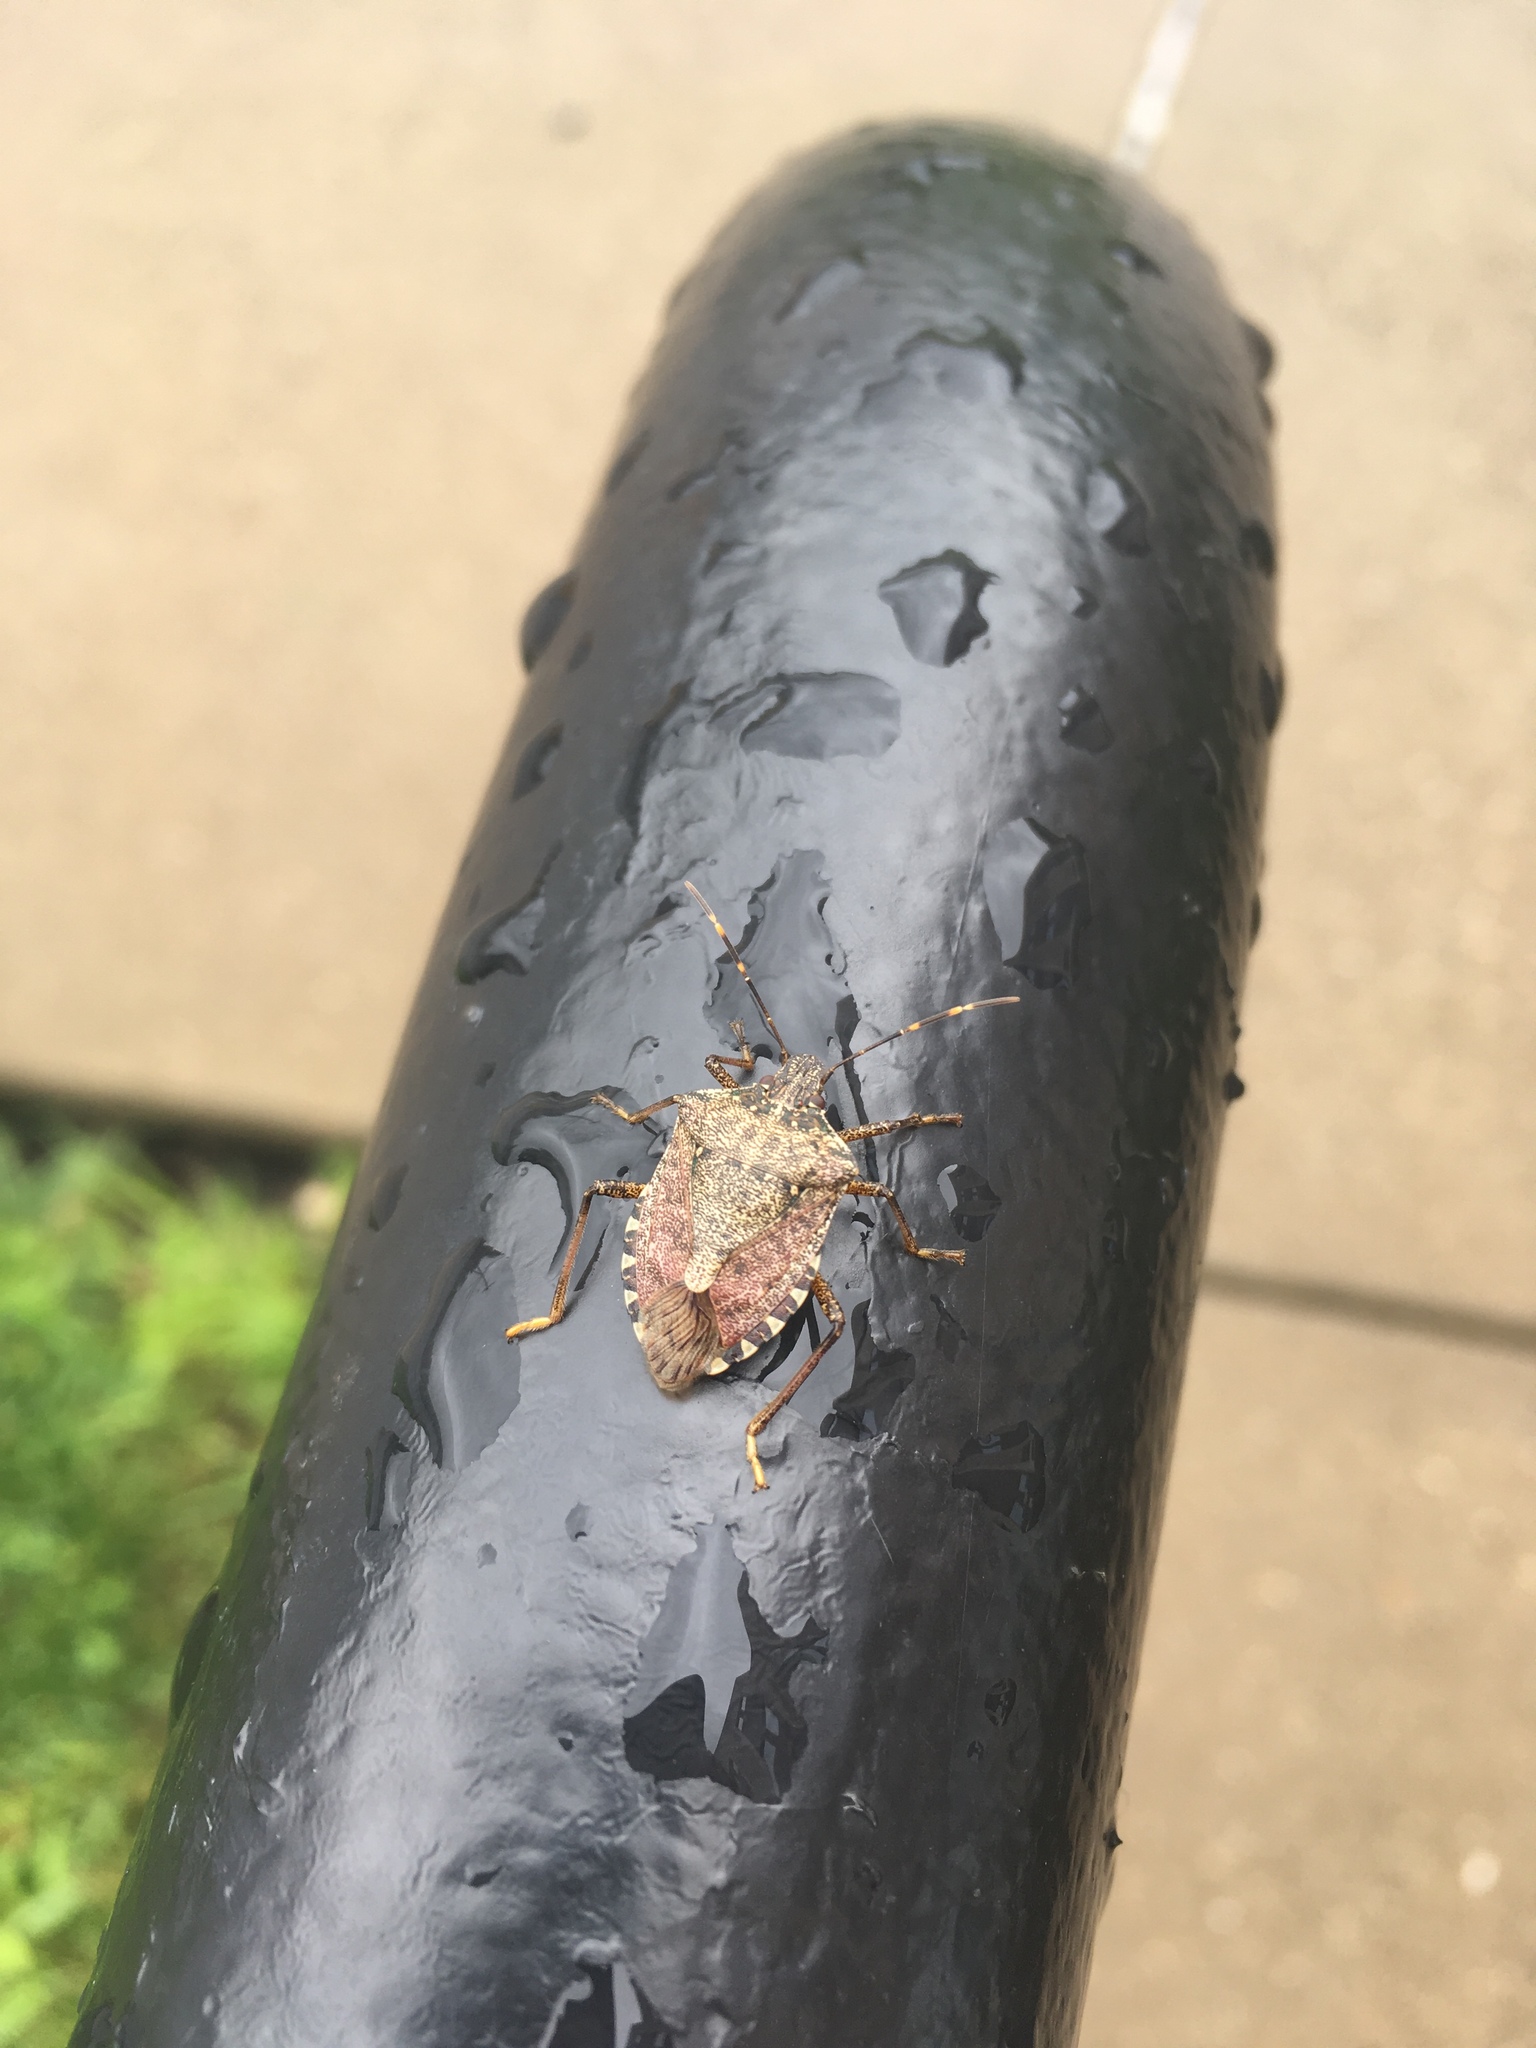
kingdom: Animalia
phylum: Arthropoda
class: Insecta
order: Hemiptera
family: Pentatomidae
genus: Halyomorpha
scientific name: Halyomorpha halys
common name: Brown marmorated stink bug
